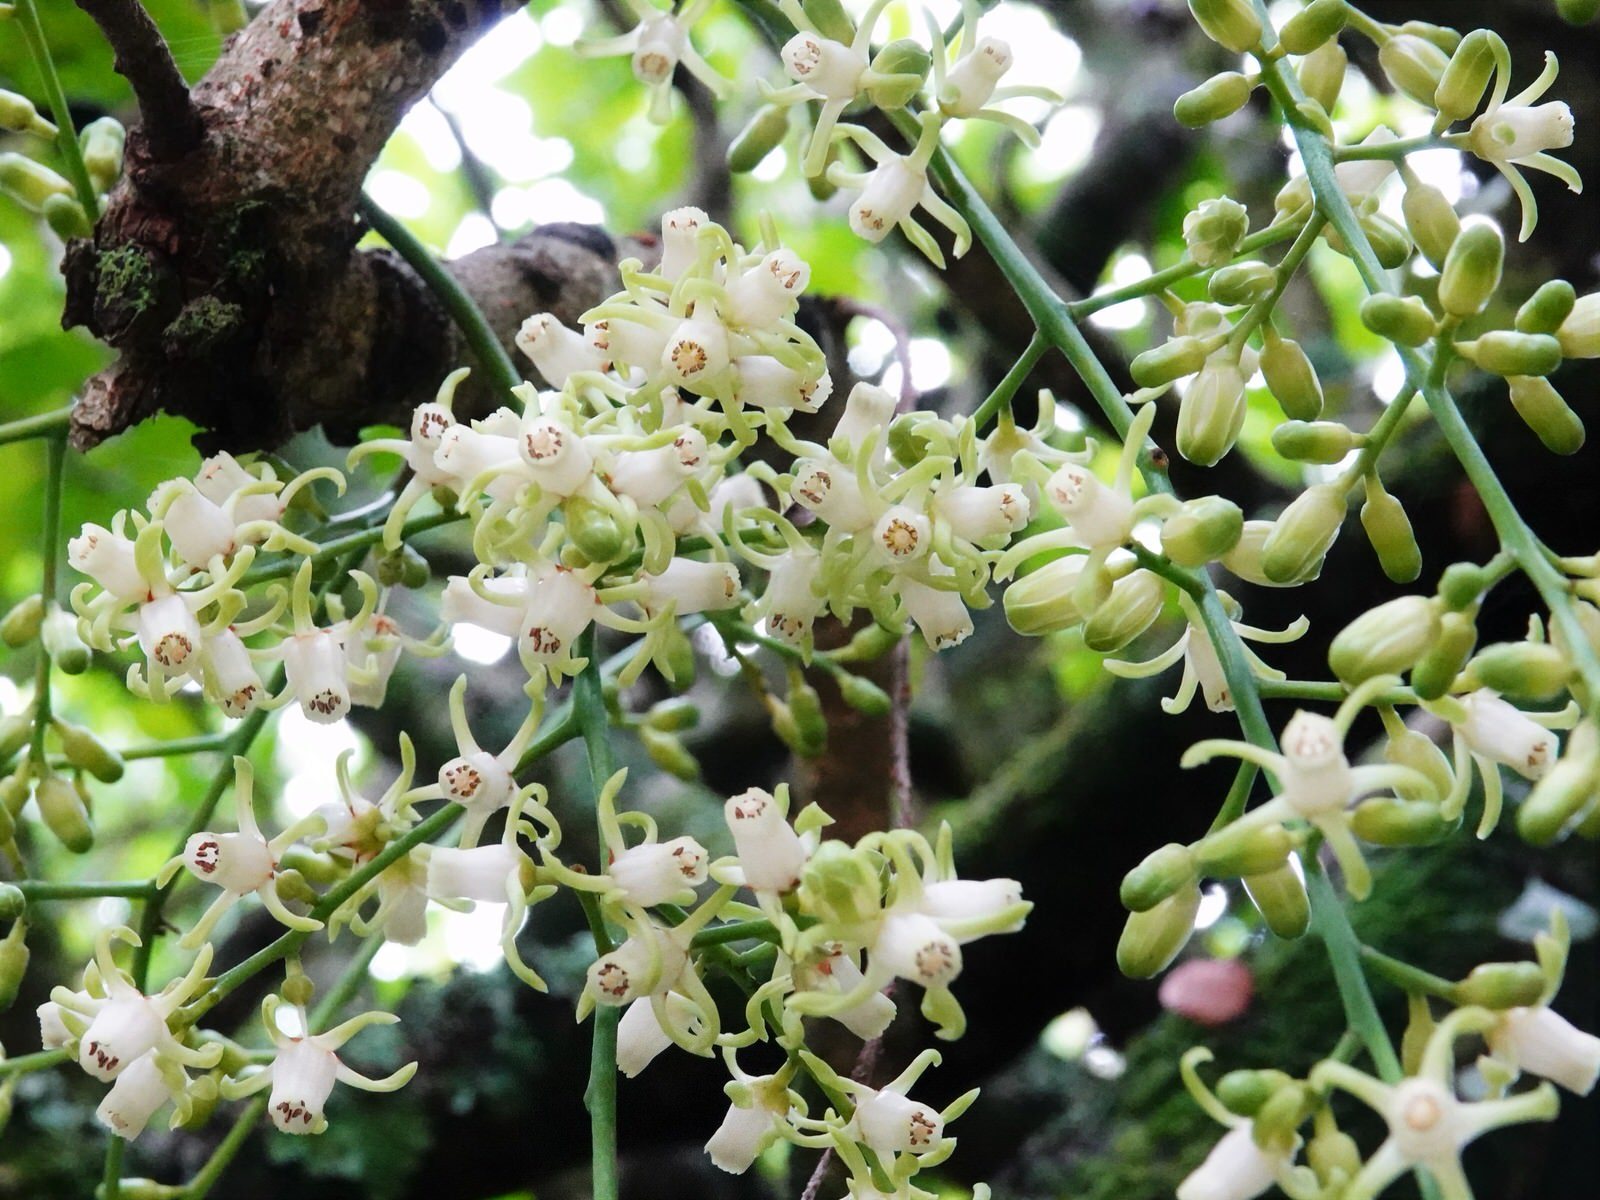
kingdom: Plantae
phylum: Tracheophyta
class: Magnoliopsida
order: Sapindales
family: Meliaceae
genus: Didymocheton
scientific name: Didymocheton spectabilis
